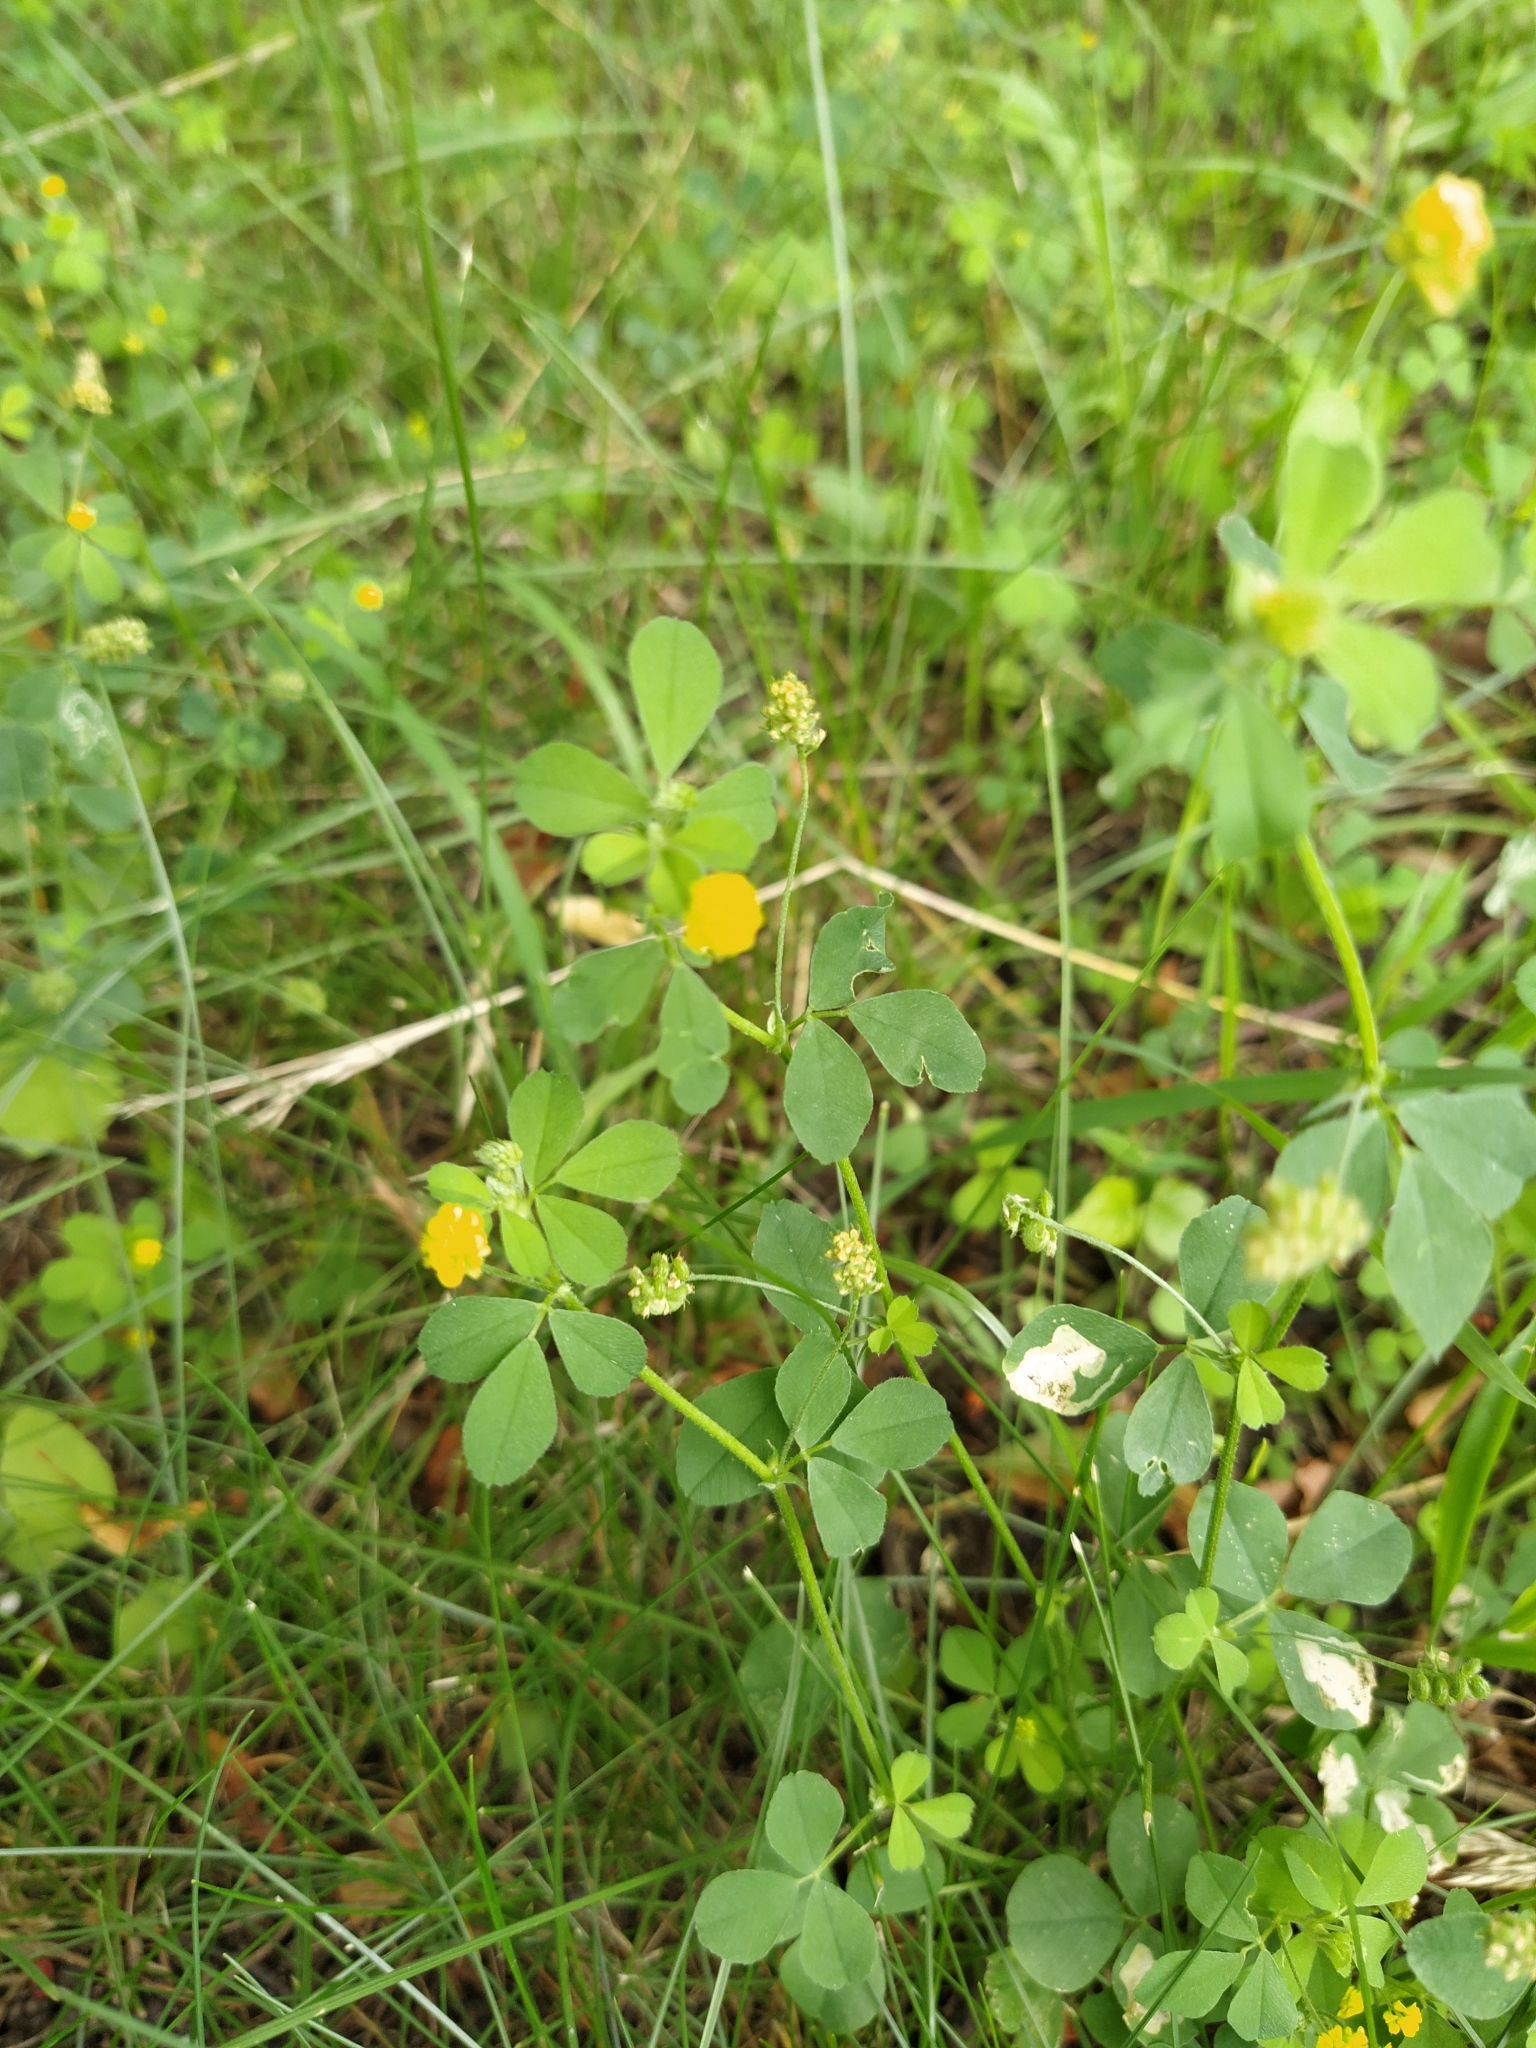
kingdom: Plantae
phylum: Tracheophyta
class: Magnoliopsida
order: Fabales
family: Fabaceae
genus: Medicago
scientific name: Medicago lupulina
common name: Black medick
